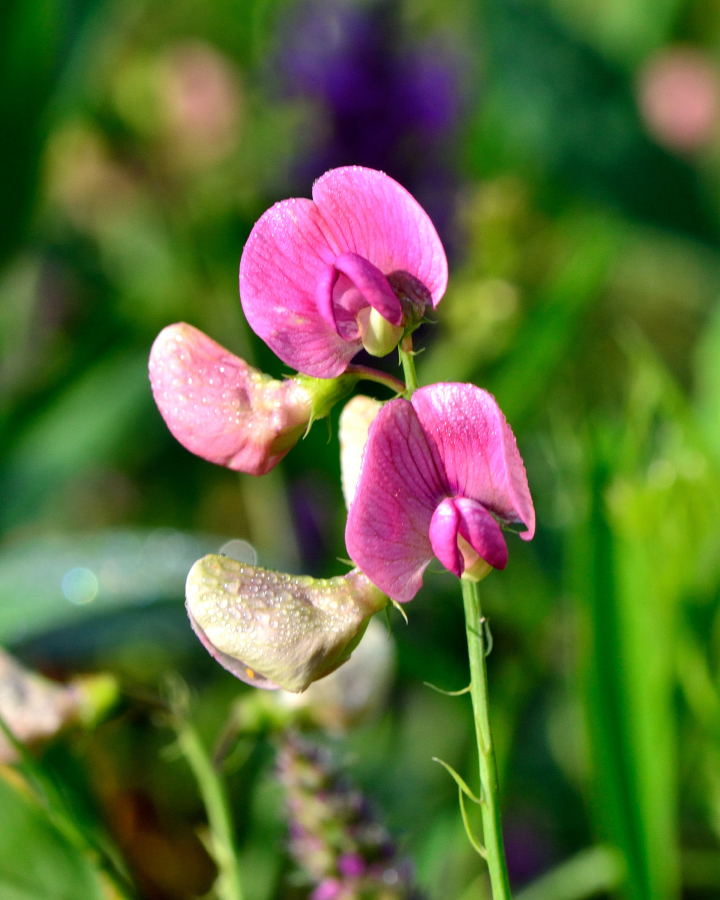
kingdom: Plantae
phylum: Tracheophyta
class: Magnoliopsida
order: Fabales
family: Fabaceae
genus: Lathyrus
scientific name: Lathyrus sylvestris
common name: Flat pea
